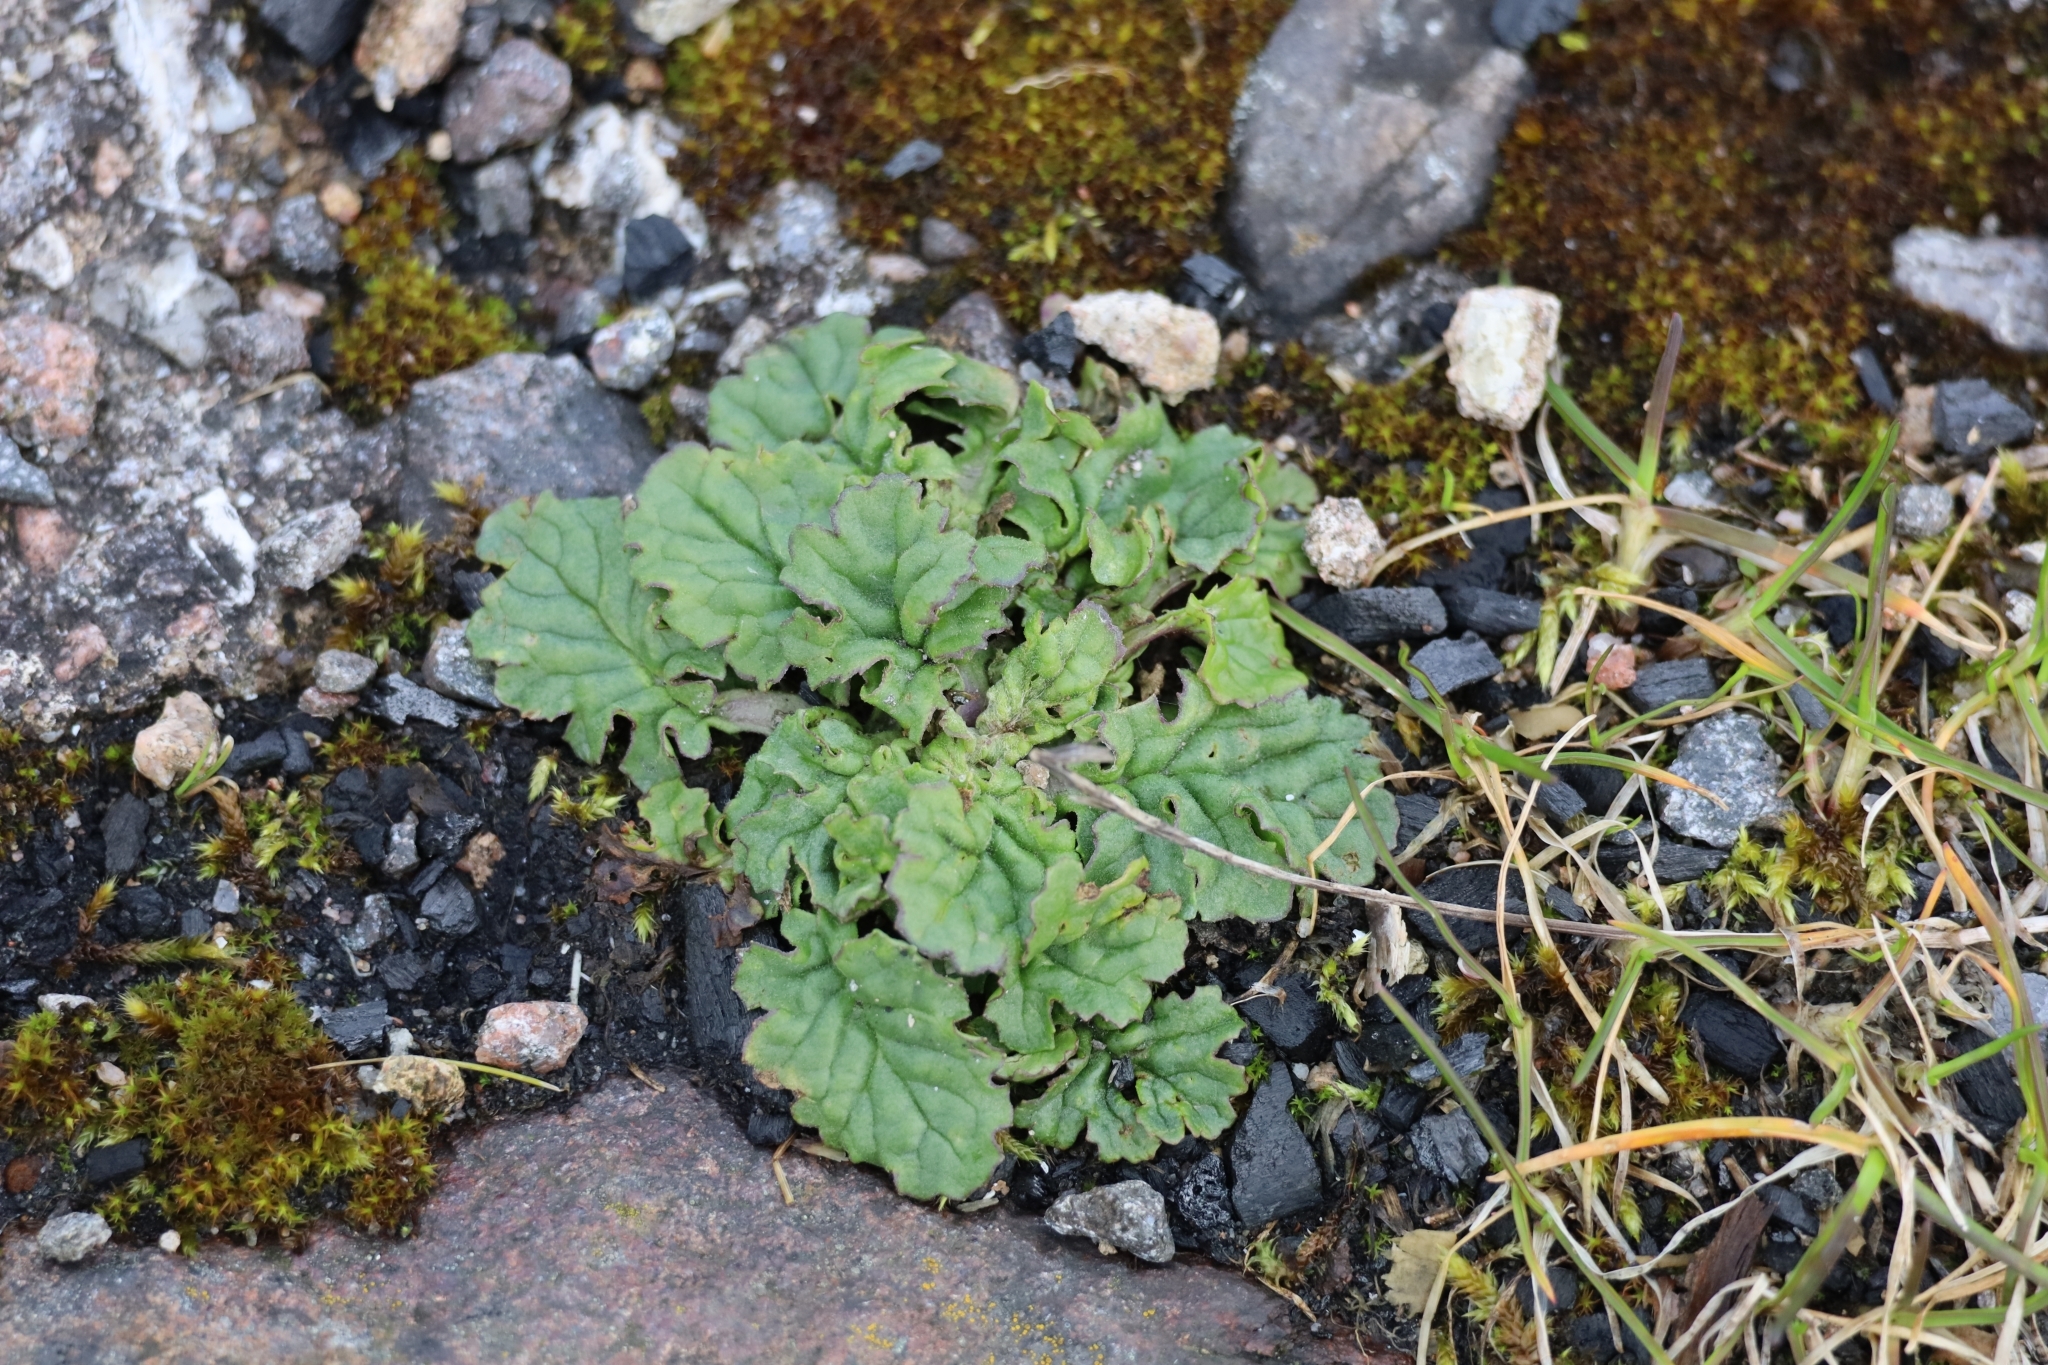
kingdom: Plantae
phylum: Tracheophyta
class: Magnoliopsida
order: Asterales
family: Asteraceae
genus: Jacobaea
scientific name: Jacobaea vulgaris
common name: Stinking willie
